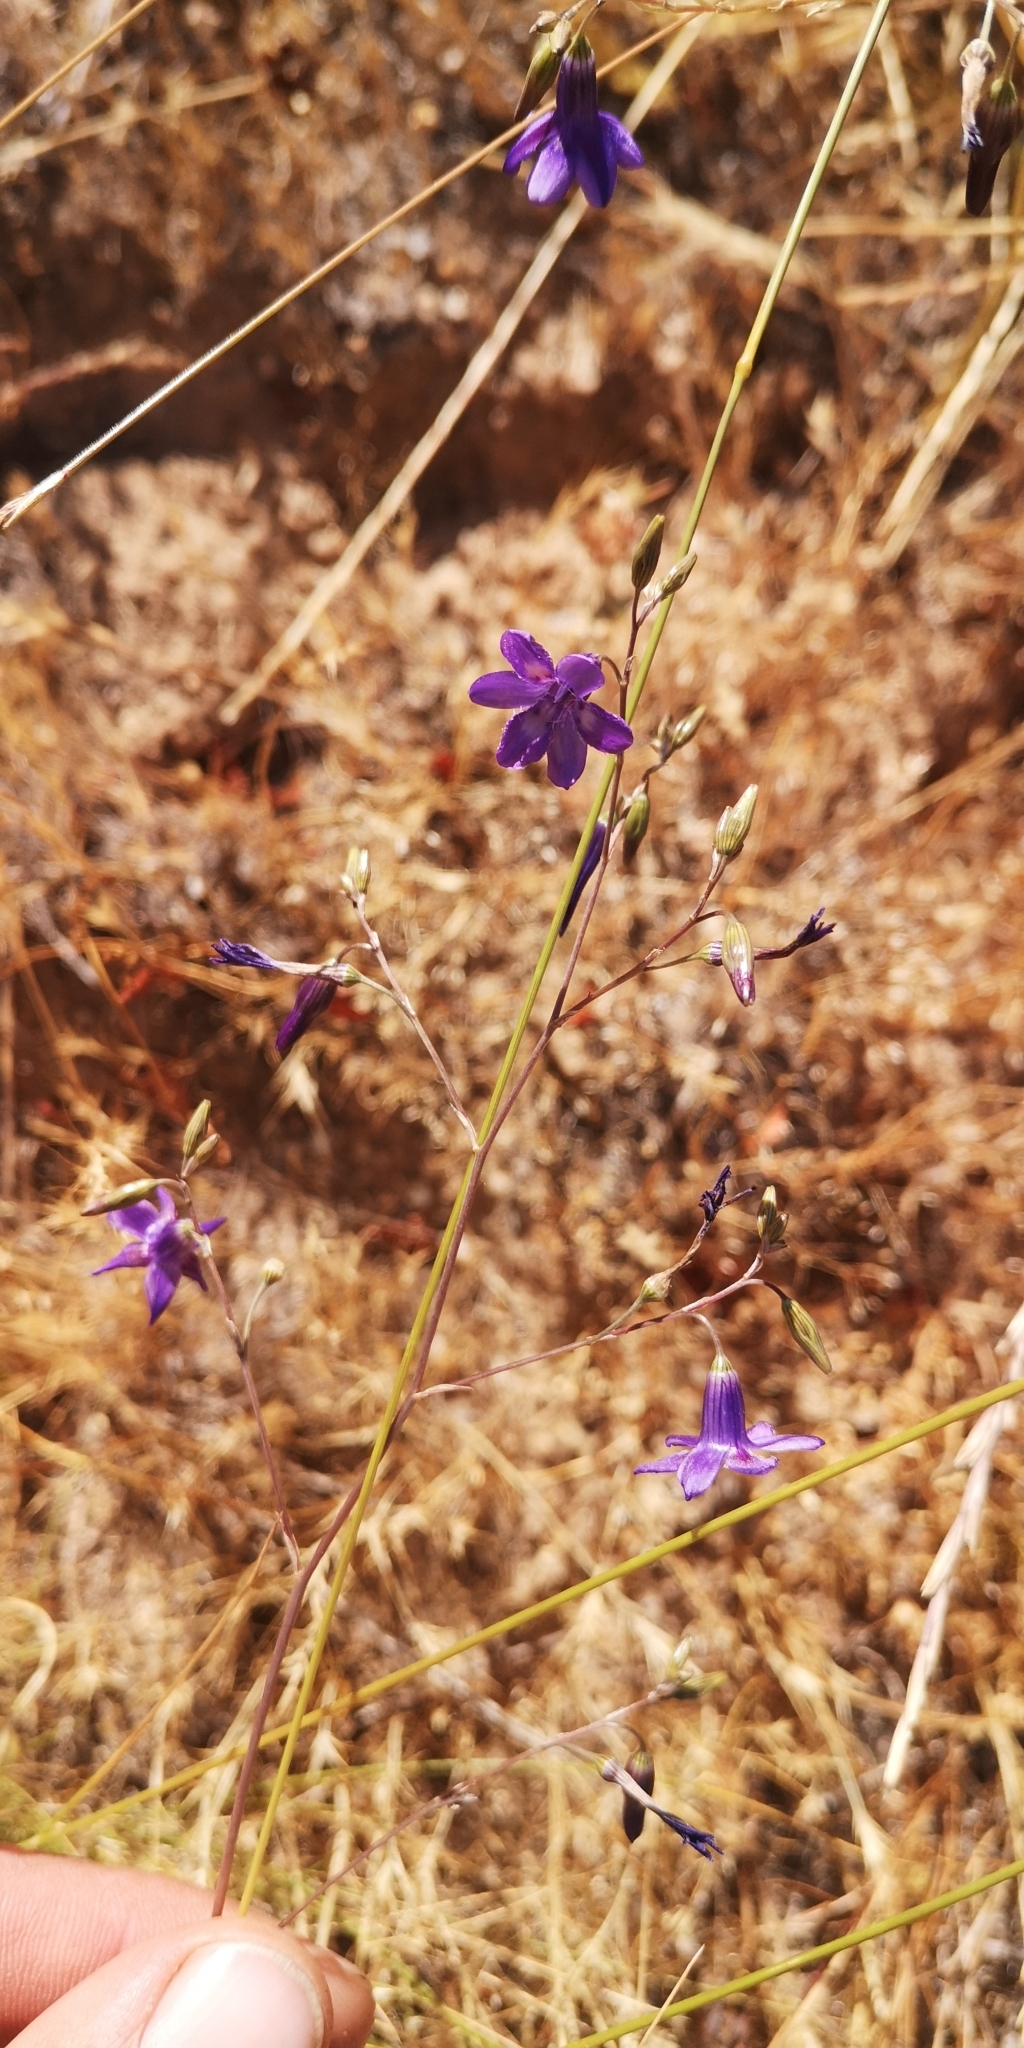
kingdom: Plantae
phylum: Tracheophyta
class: Liliopsida
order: Asparagales
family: Tecophilaeaceae
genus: Conanthera
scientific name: Conanthera trimaculata
